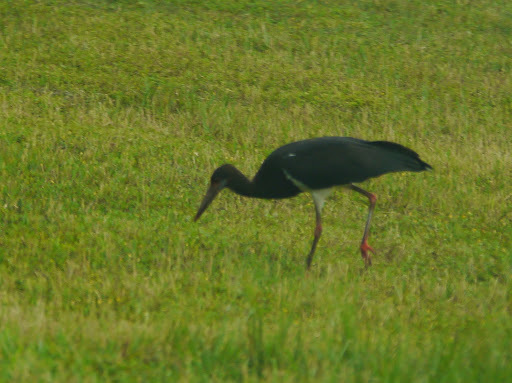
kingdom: Animalia
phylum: Chordata
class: Aves
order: Ciconiiformes
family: Ciconiidae
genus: Ciconia
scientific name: Ciconia abdimii
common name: Abdim's stork
